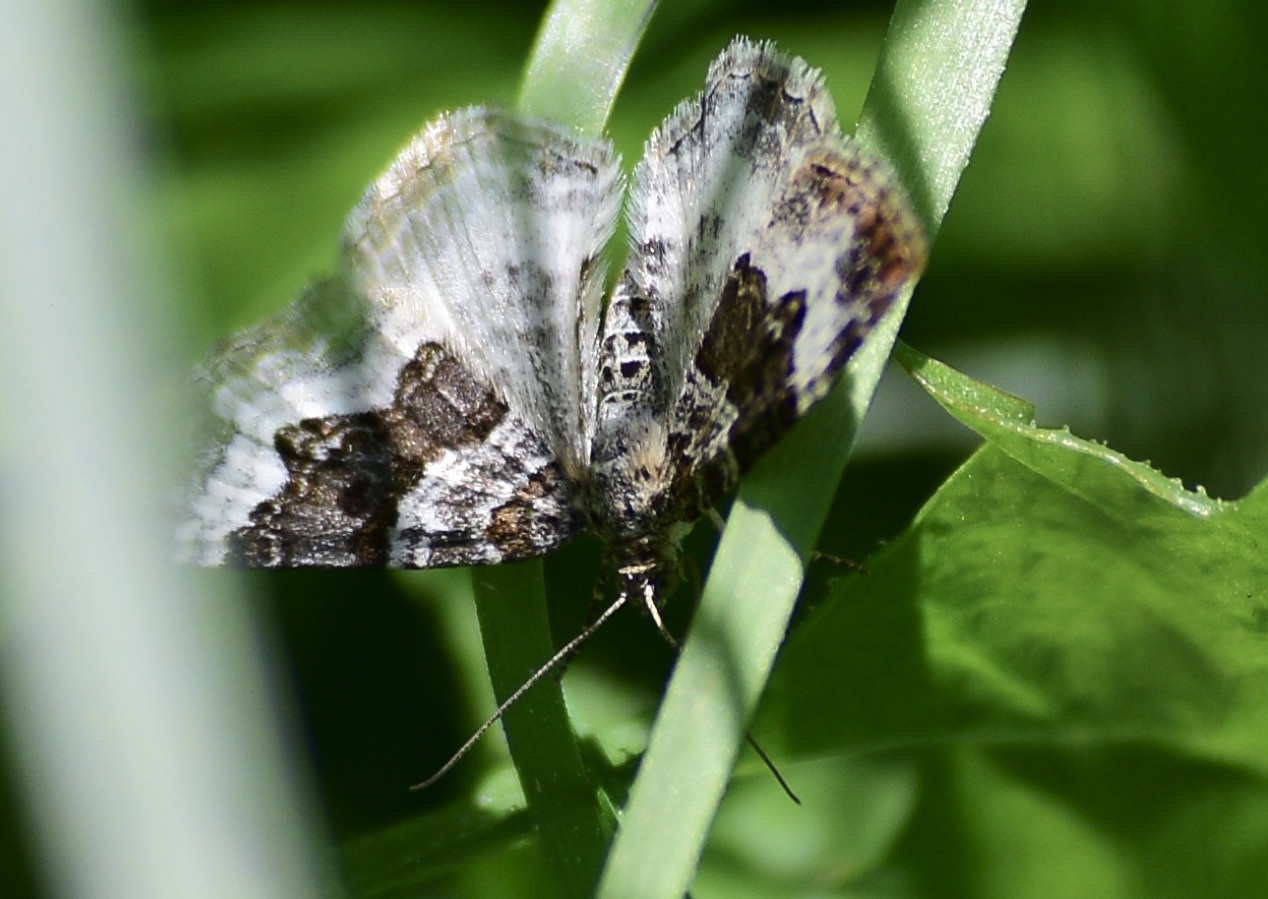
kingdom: Animalia
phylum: Arthropoda
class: Insecta
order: Lepidoptera
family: Geometridae
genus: Epirrhoe
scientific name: Epirrhoe alternata
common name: Common carpet
